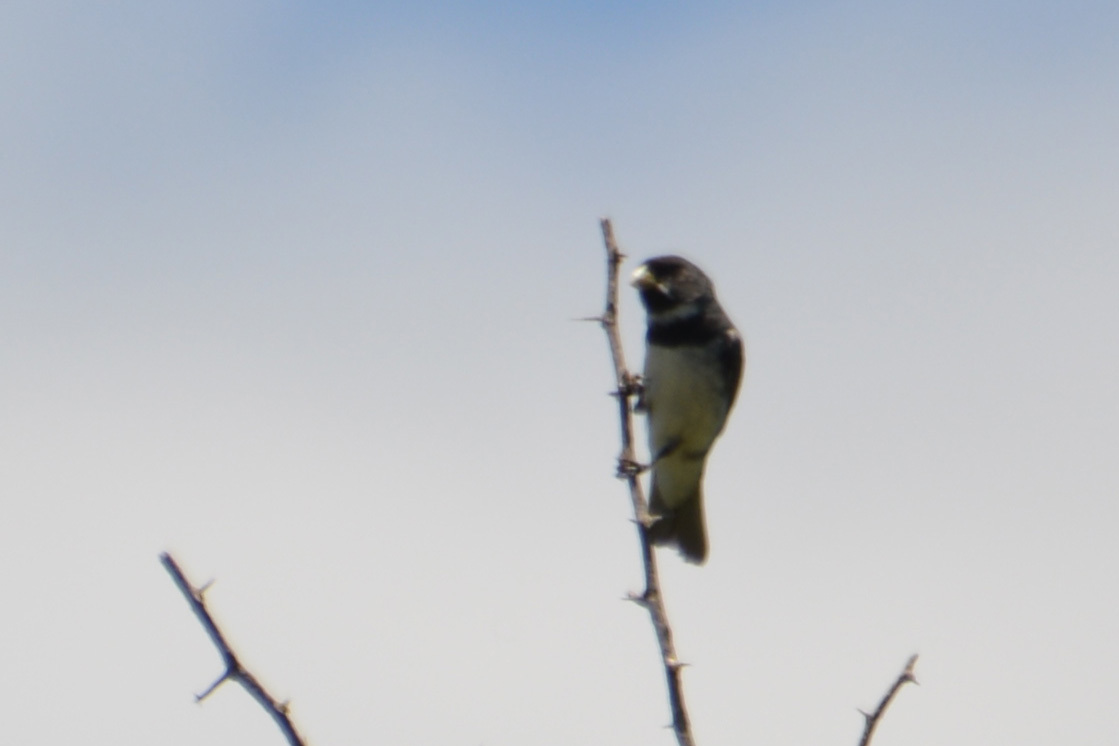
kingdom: Animalia
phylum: Chordata
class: Aves
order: Passeriformes
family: Thraupidae
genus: Sporophila
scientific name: Sporophila caerulescens
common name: Double-collared seedeater
